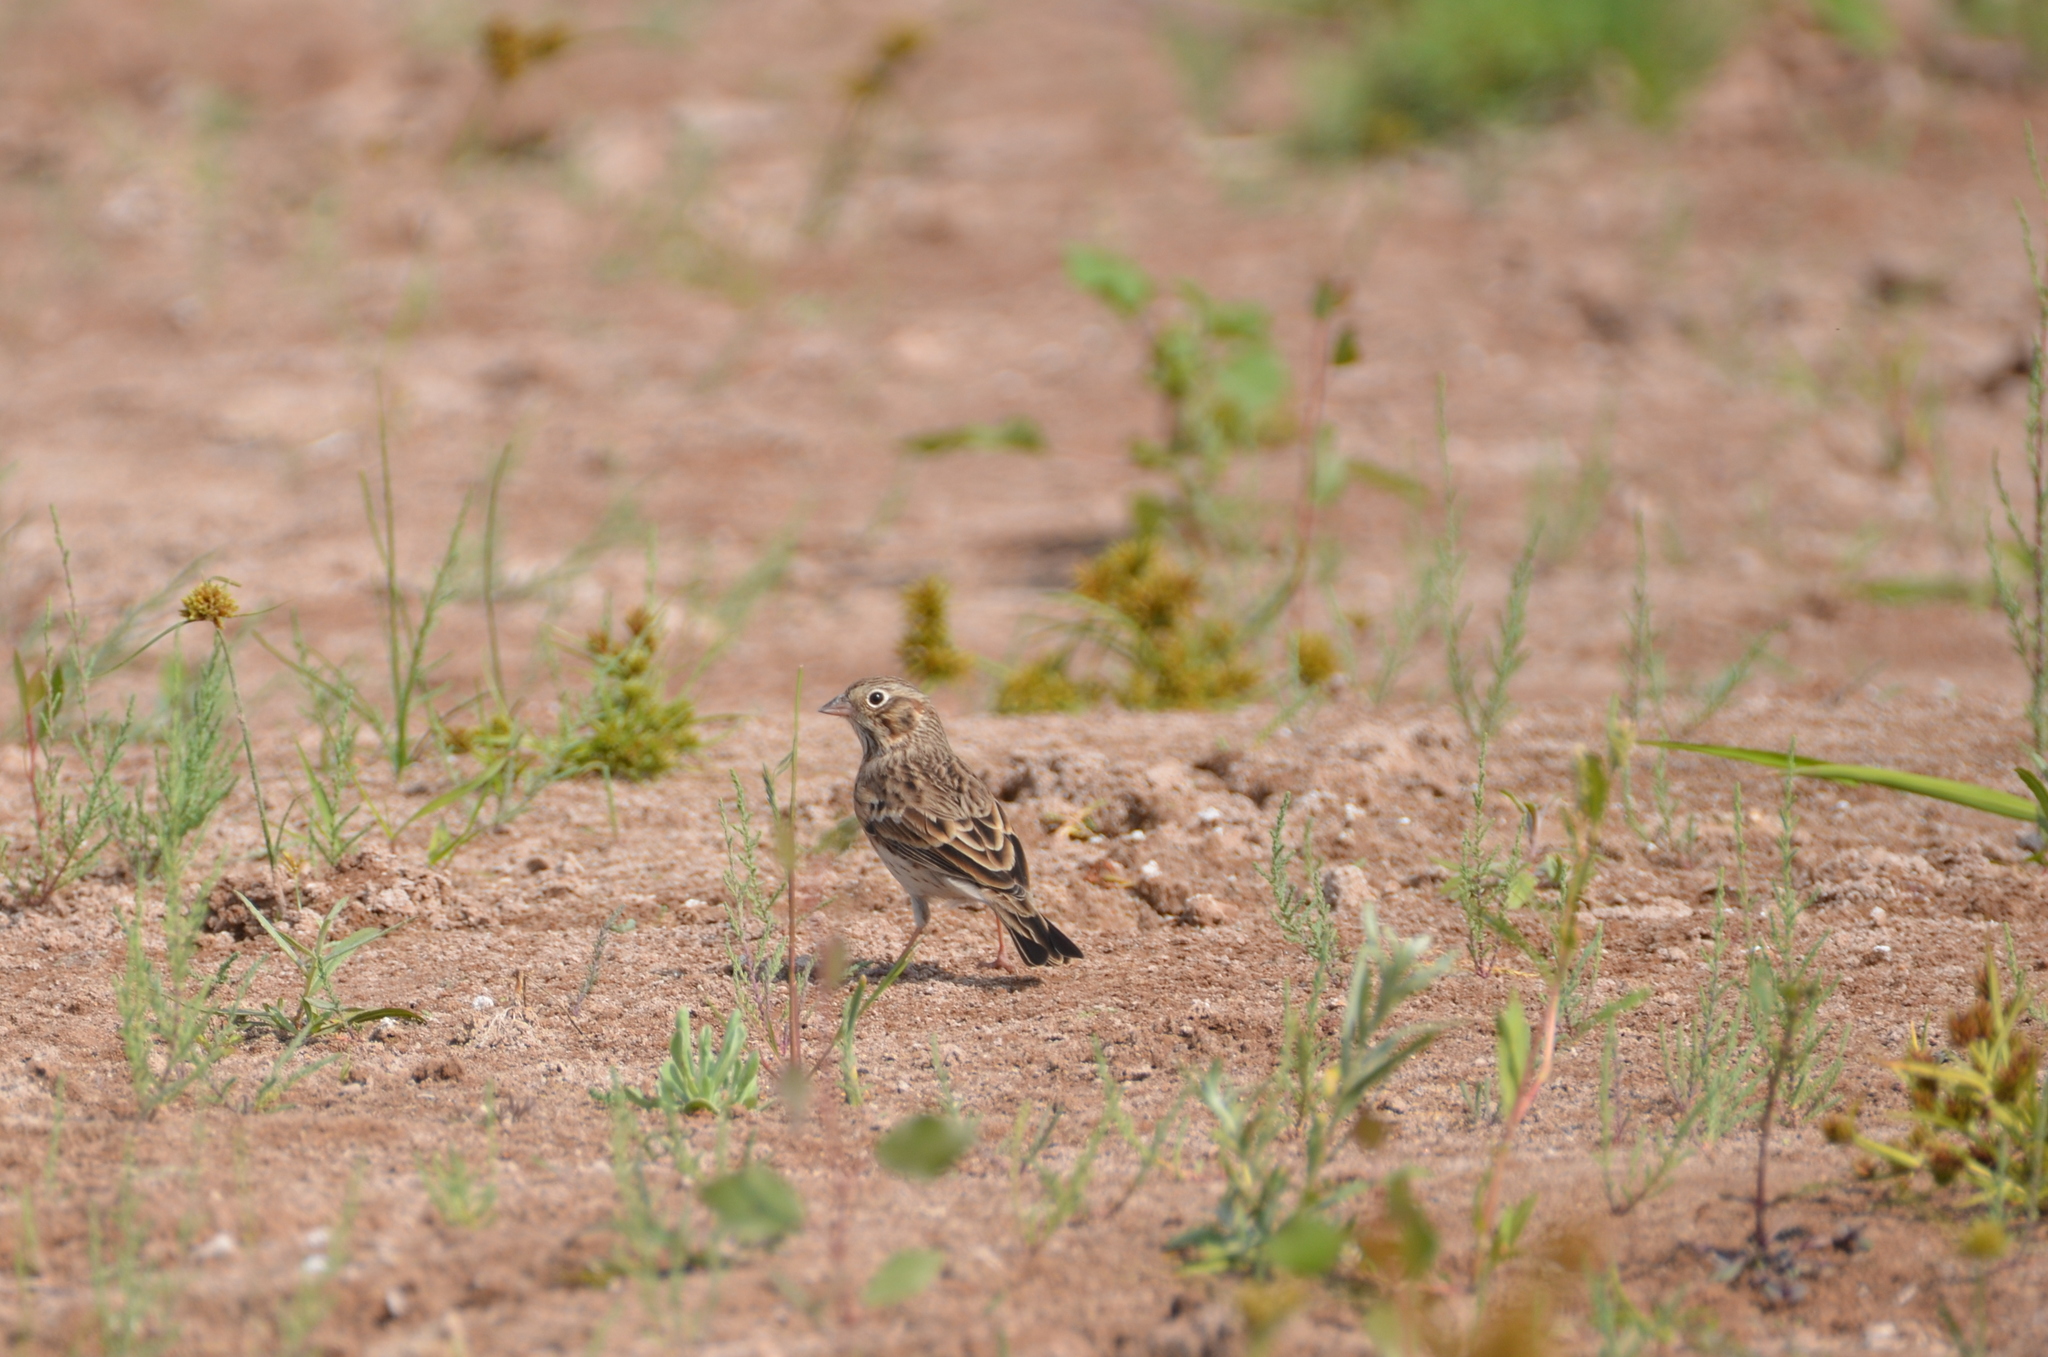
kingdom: Animalia
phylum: Chordata
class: Aves
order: Passeriformes
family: Passerellidae
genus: Pooecetes
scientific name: Pooecetes gramineus
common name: Vesper sparrow
